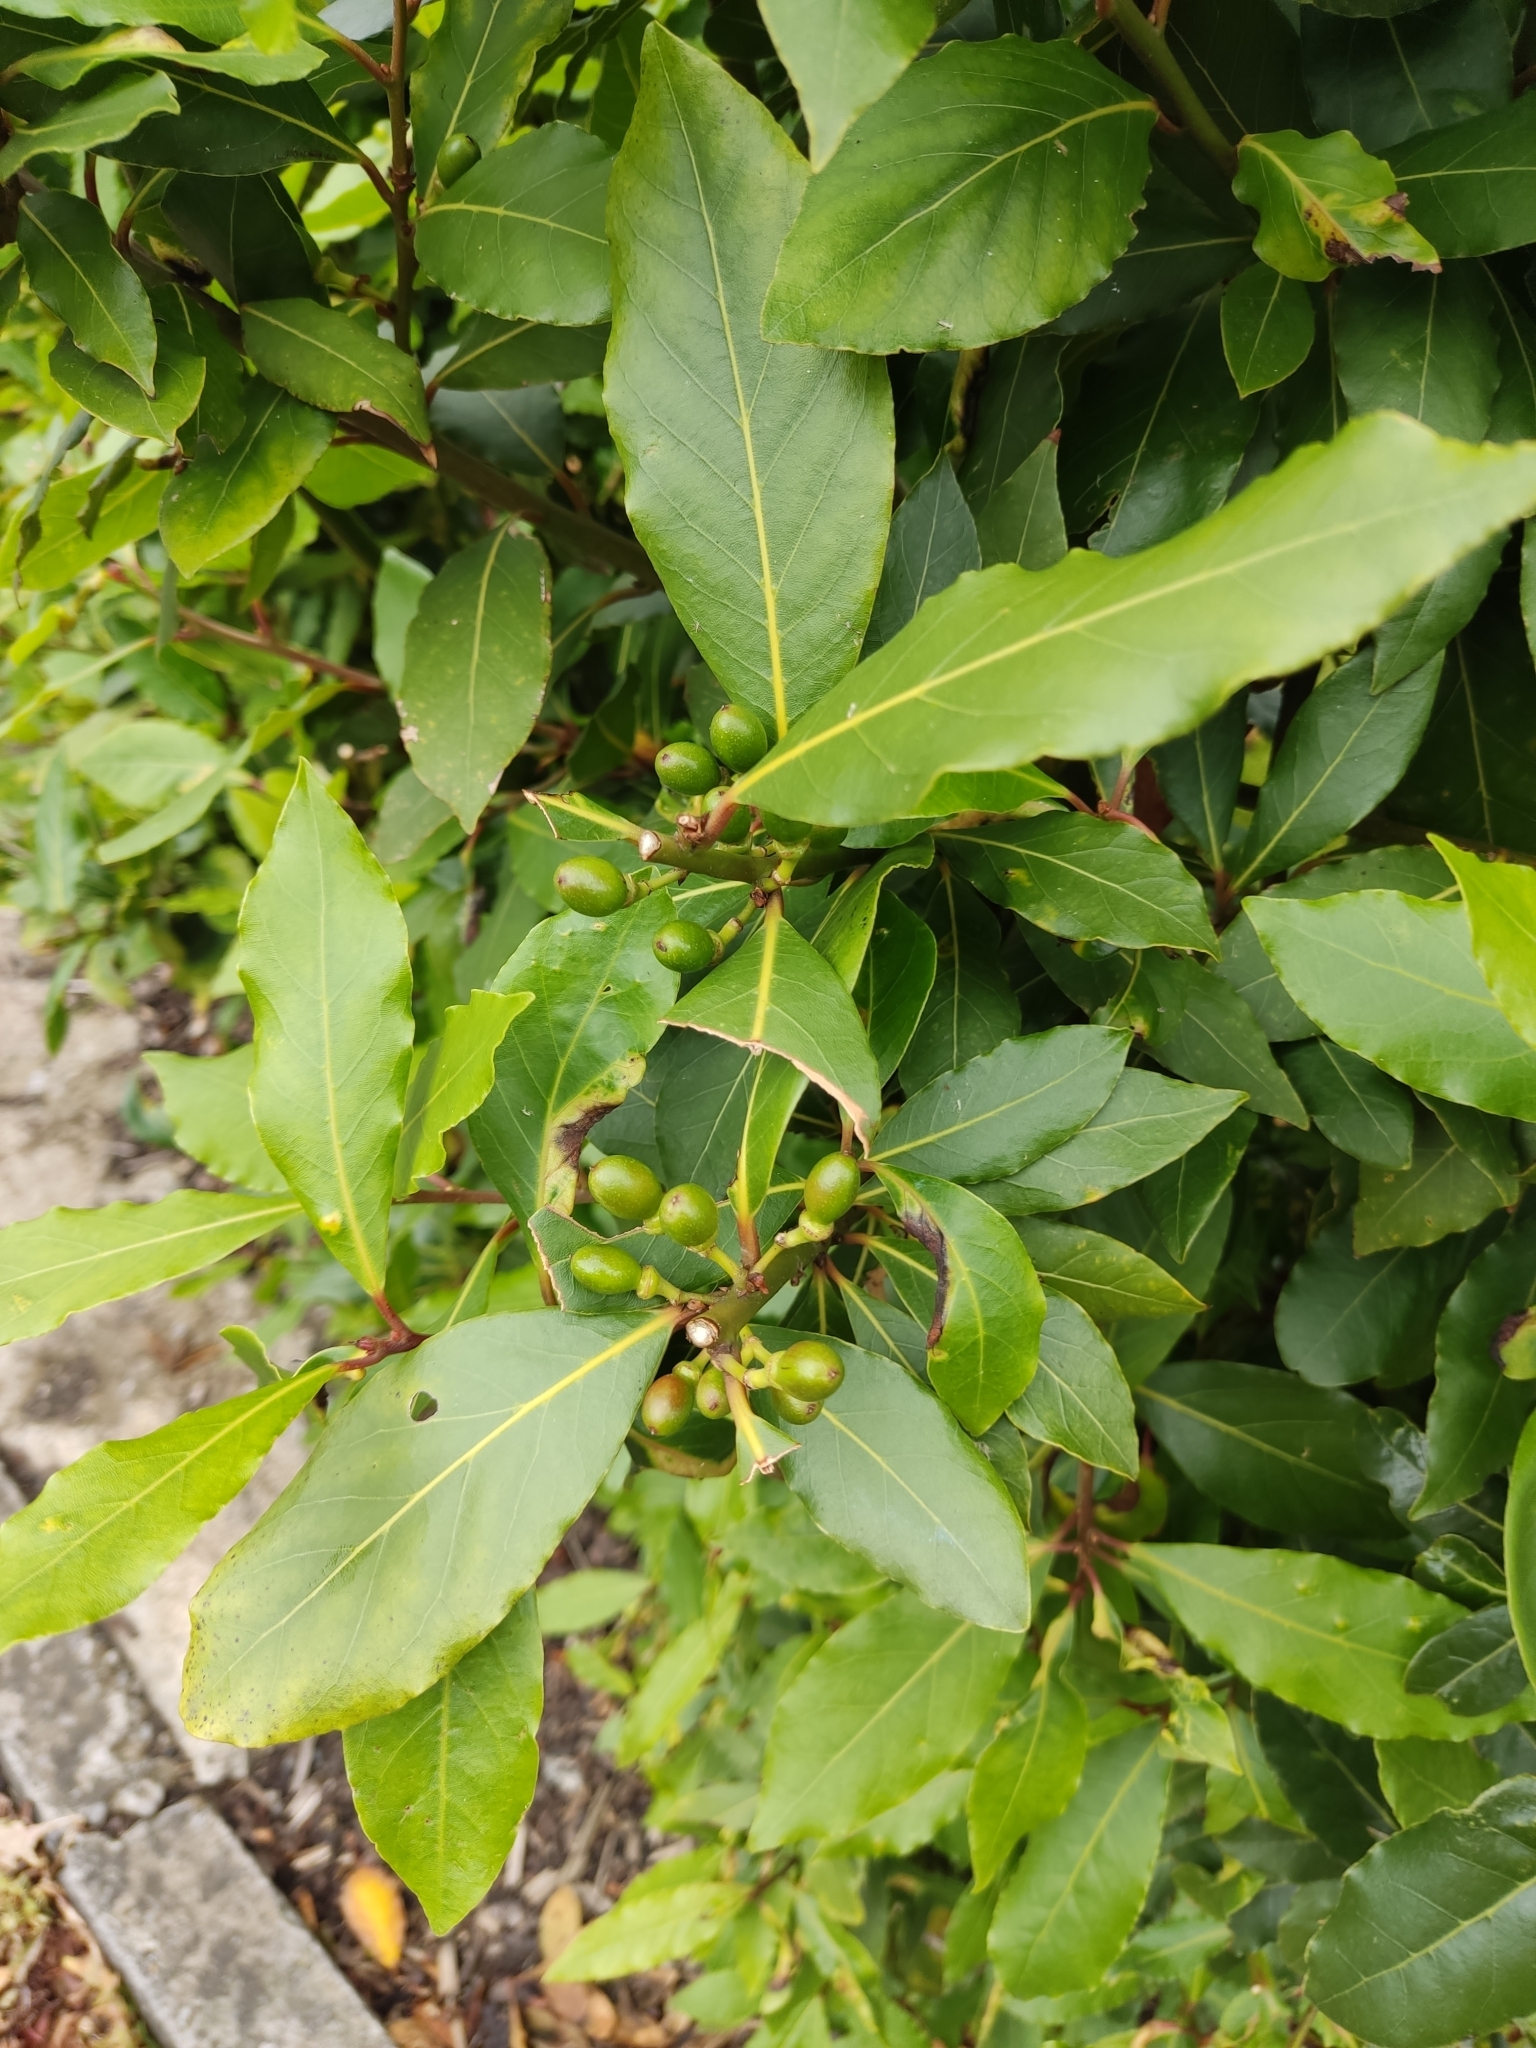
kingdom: Plantae
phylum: Tracheophyta
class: Magnoliopsida
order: Laurales
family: Lauraceae
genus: Laurus
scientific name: Laurus nobilis
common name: Bay
